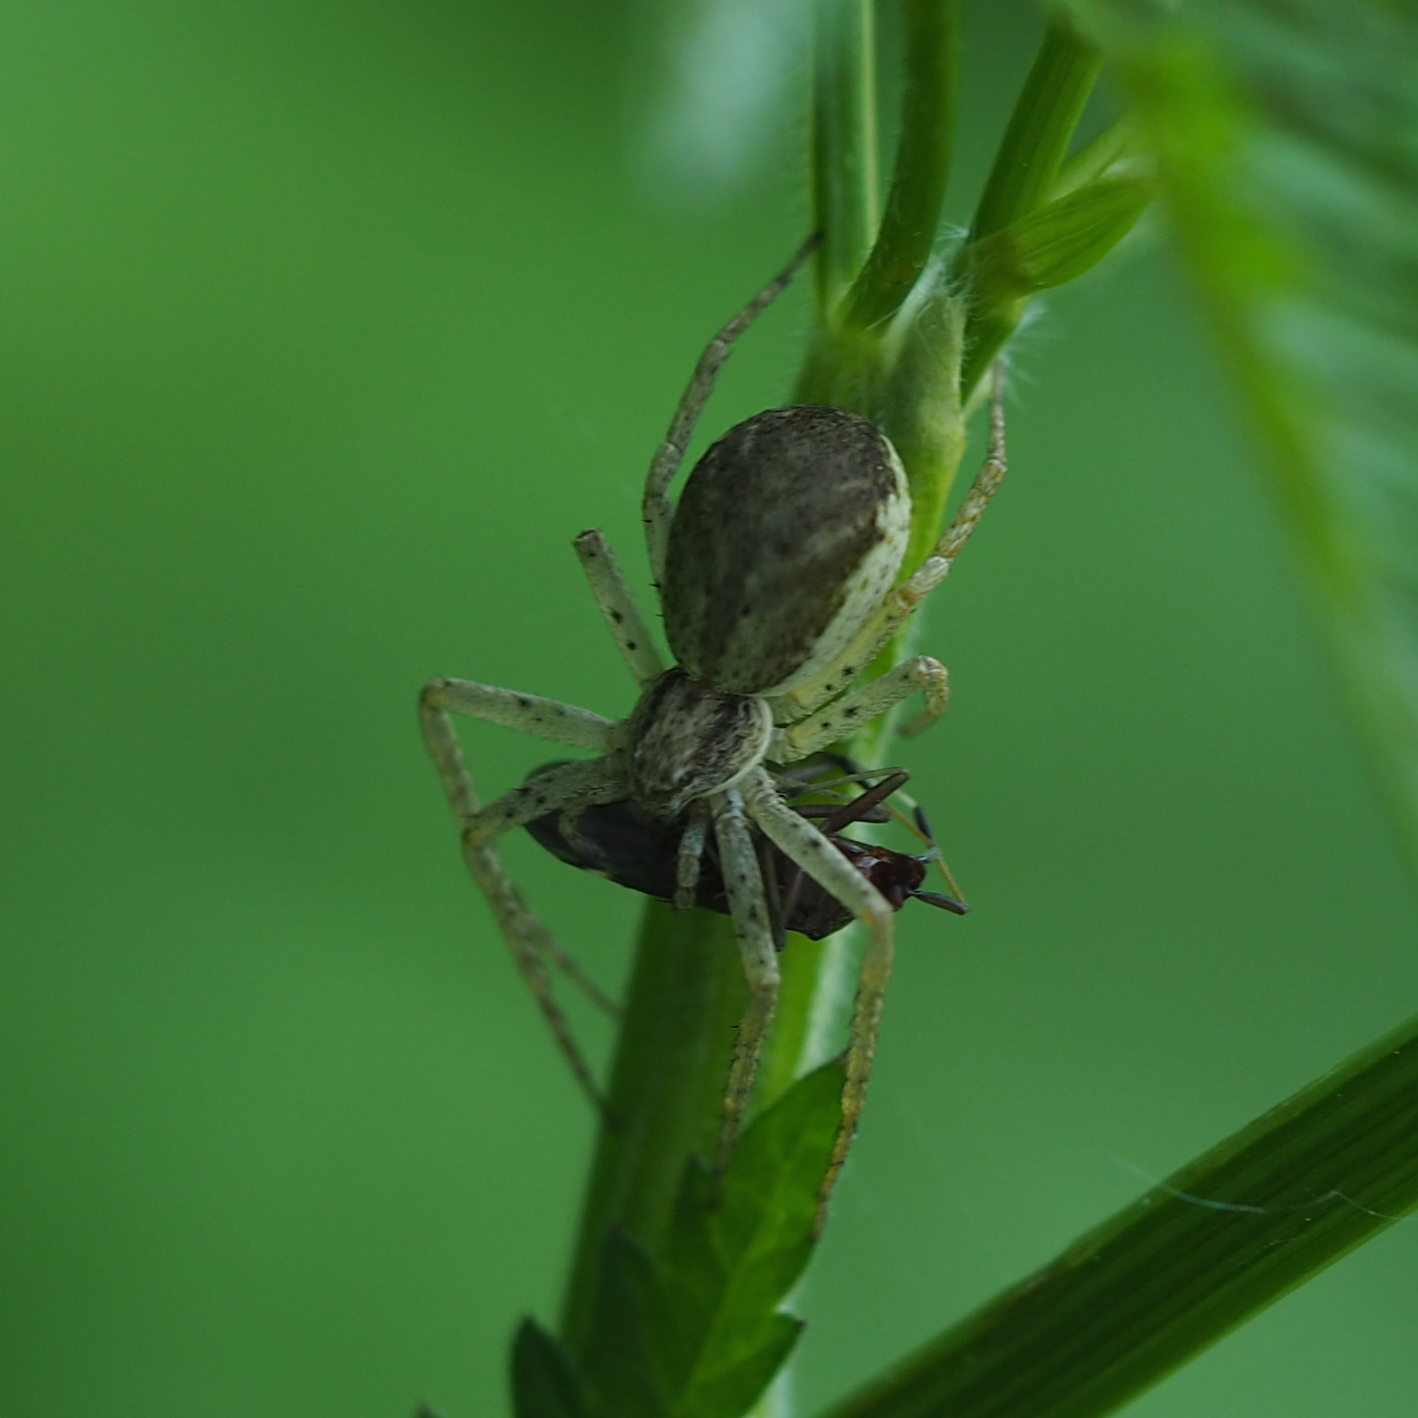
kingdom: Animalia
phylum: Arthropoda
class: Arachnida
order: Araneae
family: Philodromidae
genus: Philodromus
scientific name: Philodromus dispar
